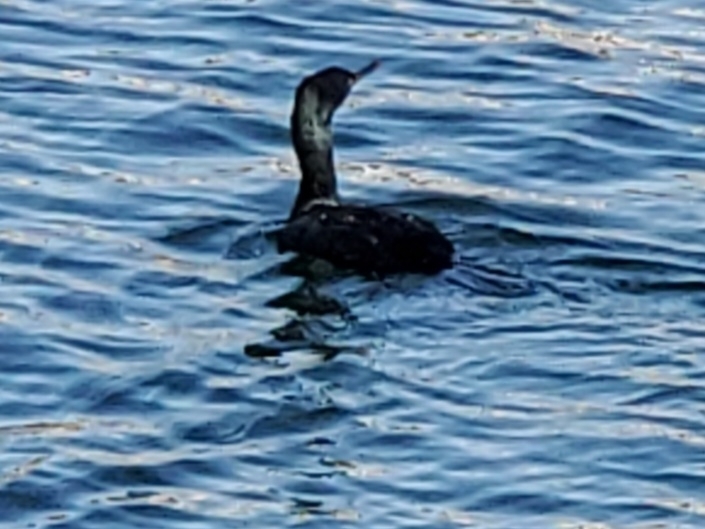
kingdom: Animalia
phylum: Chordata
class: Aves
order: Suliformes
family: Phalacrocoracidae
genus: Phalacrocorax
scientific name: Phalacrocorax pelagicus
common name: Pelagic cormorant
